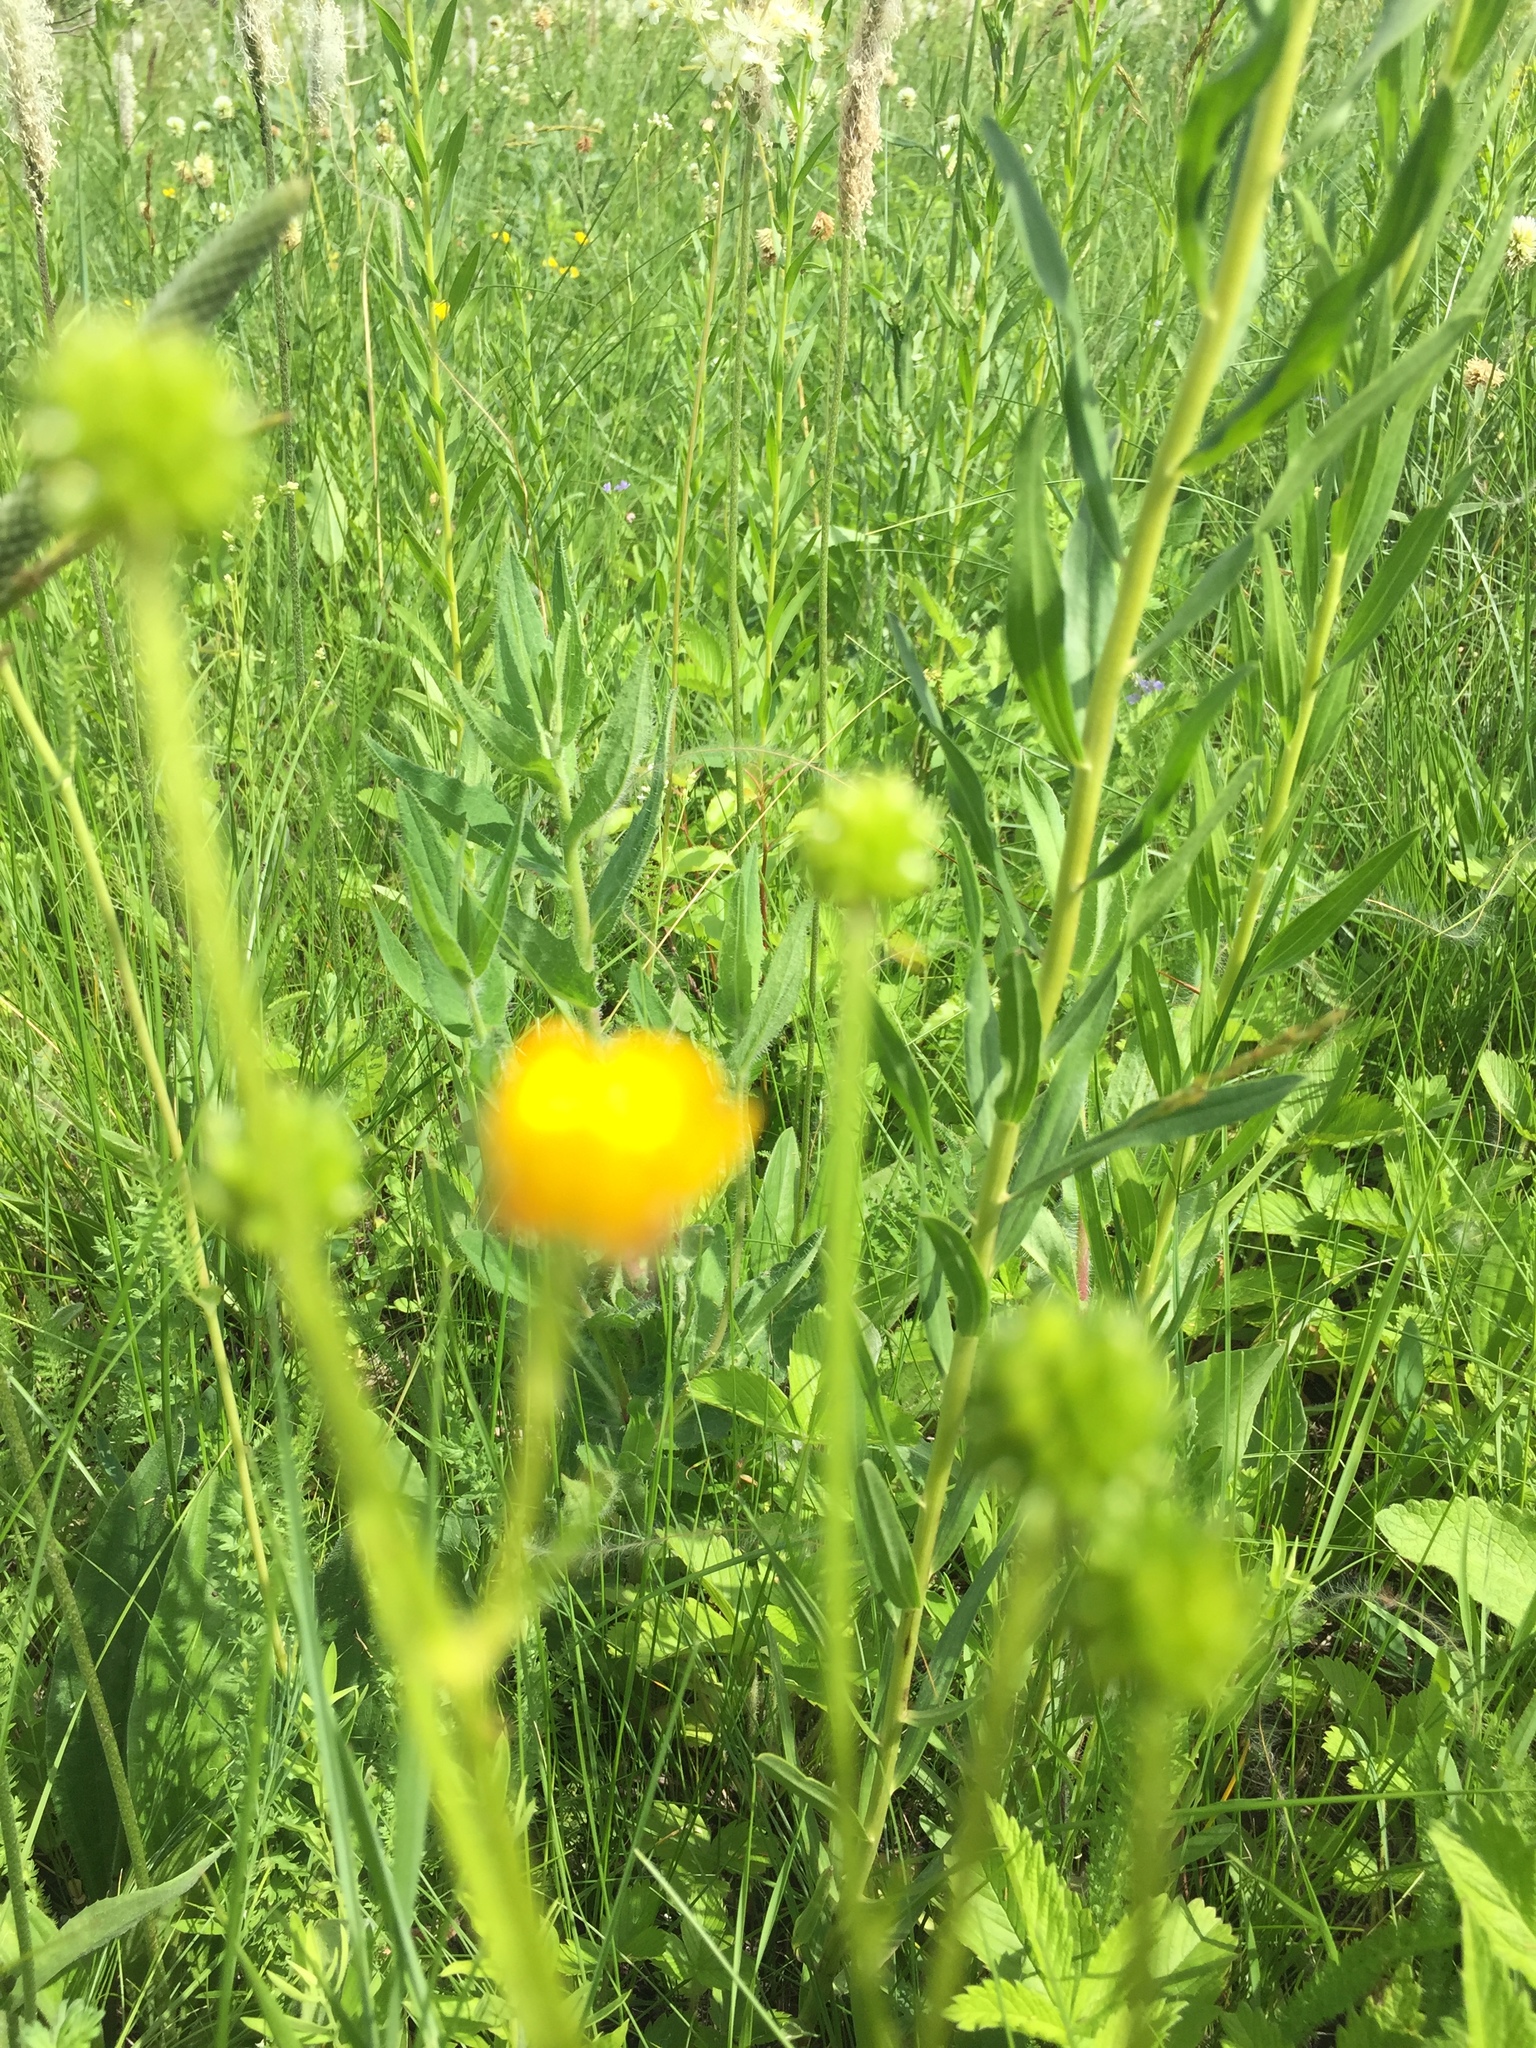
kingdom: Plantae
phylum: Tracheophyta
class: Magnoliopsida
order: Ranunculales
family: Ranunculaceae
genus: Ranunculus
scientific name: Ranunculus polyanthemos
